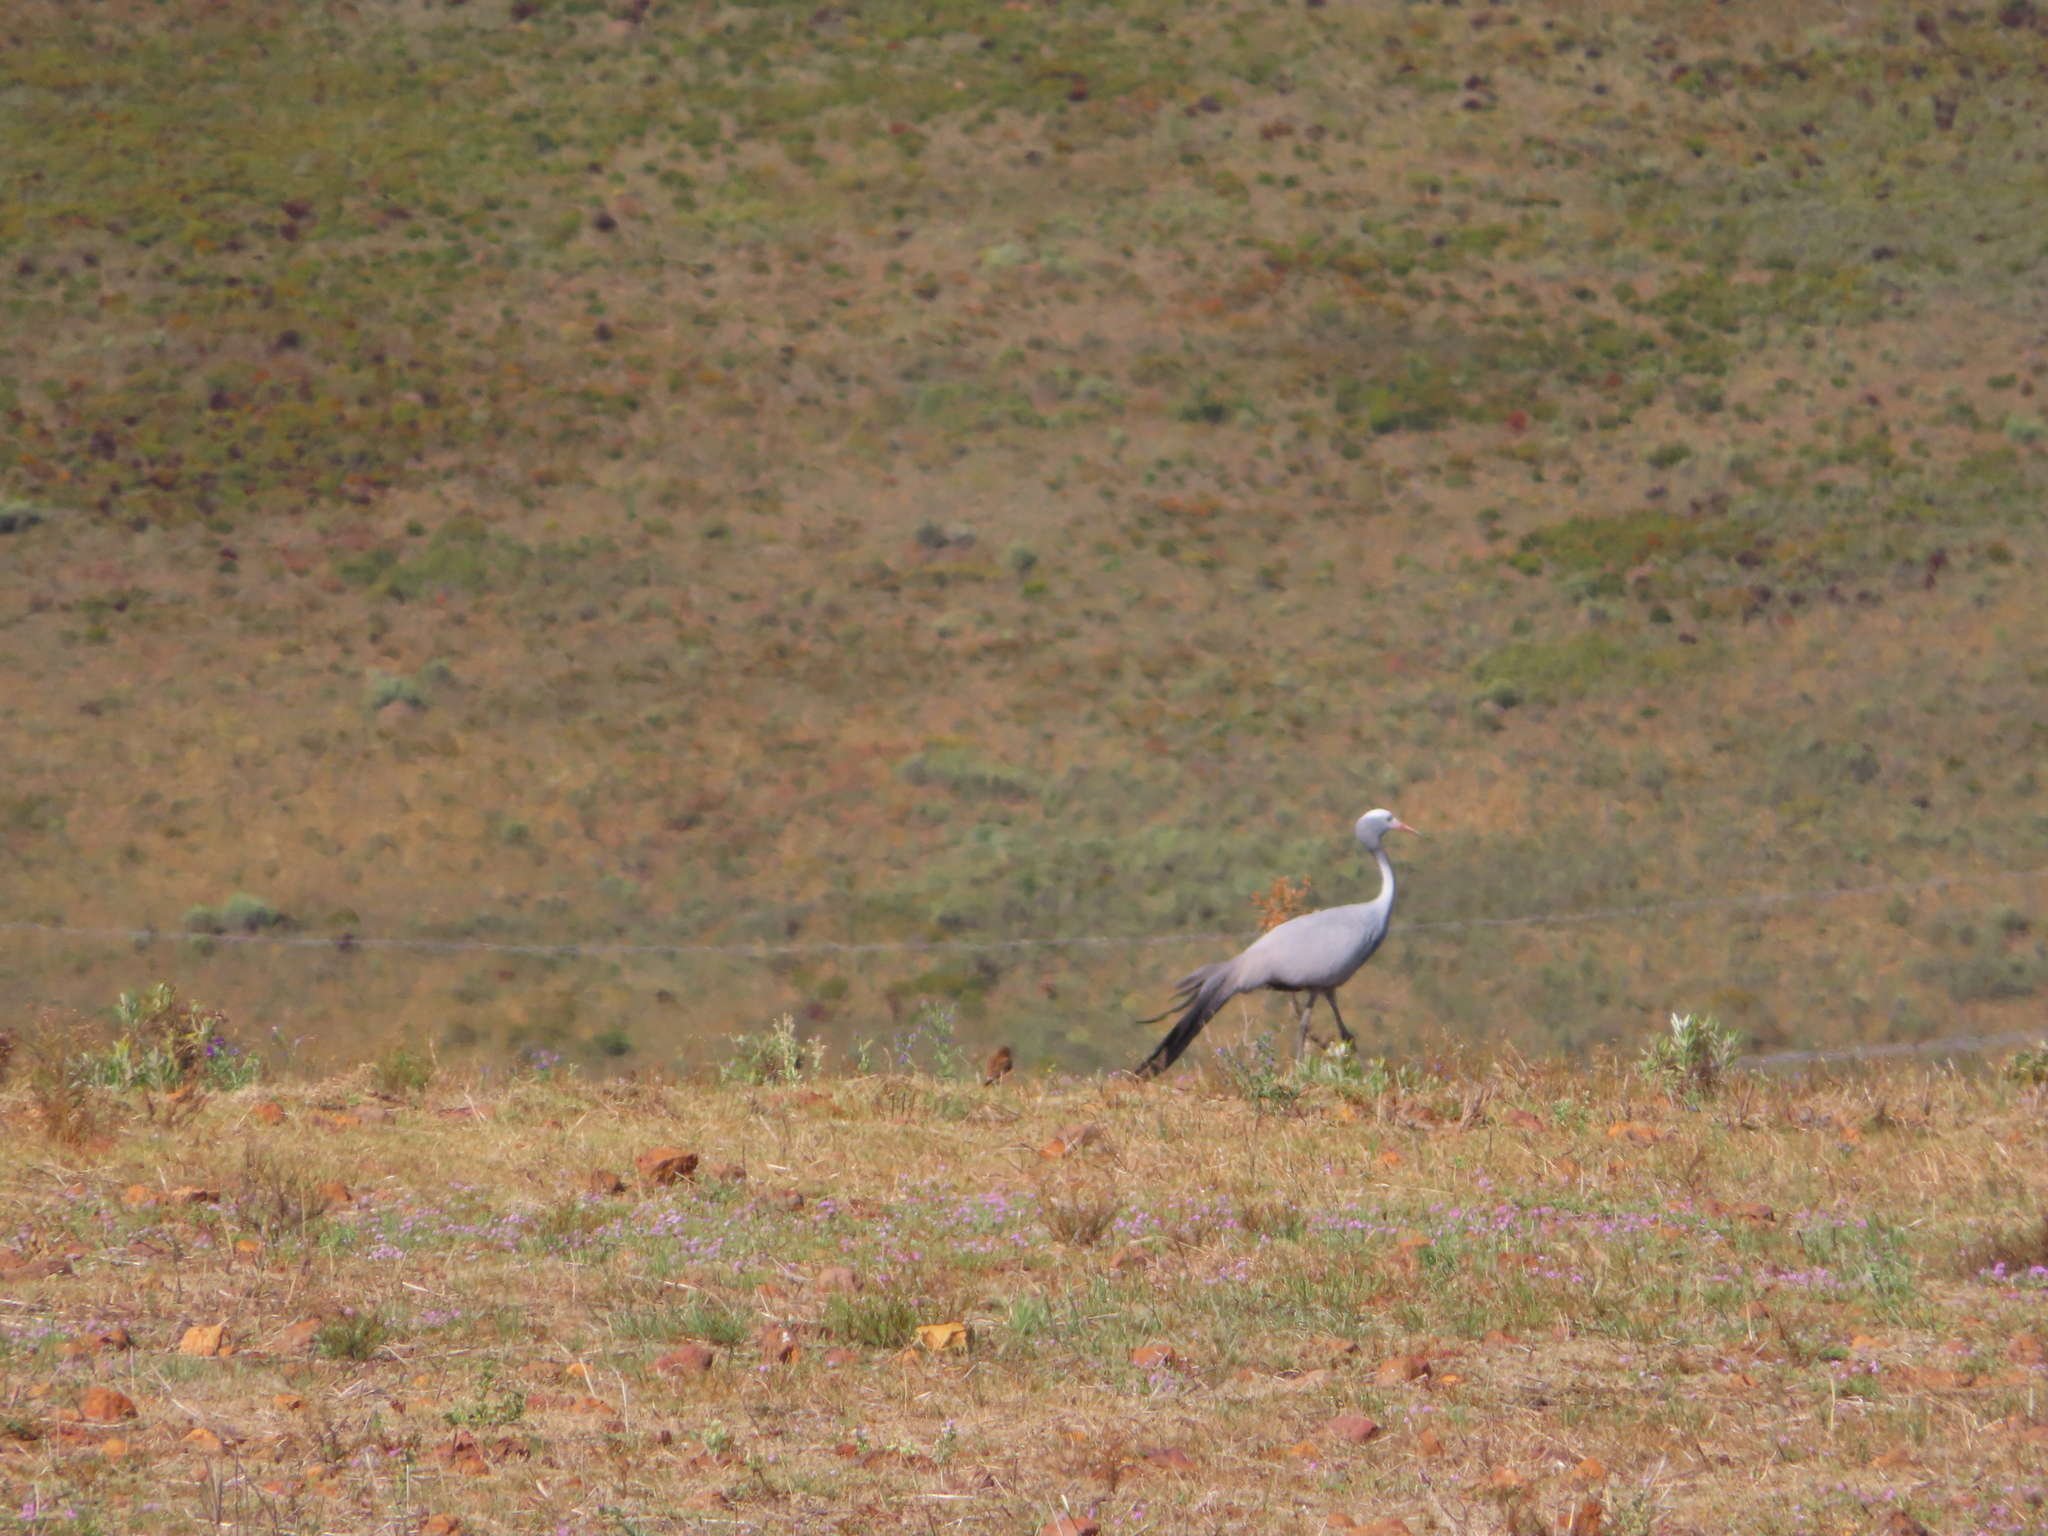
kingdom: Animalia
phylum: Chordata
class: Aves
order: Gruiformes
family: Gruidae
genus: Anthropoides
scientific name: Anthropoides paradiseus
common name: Blue crane
